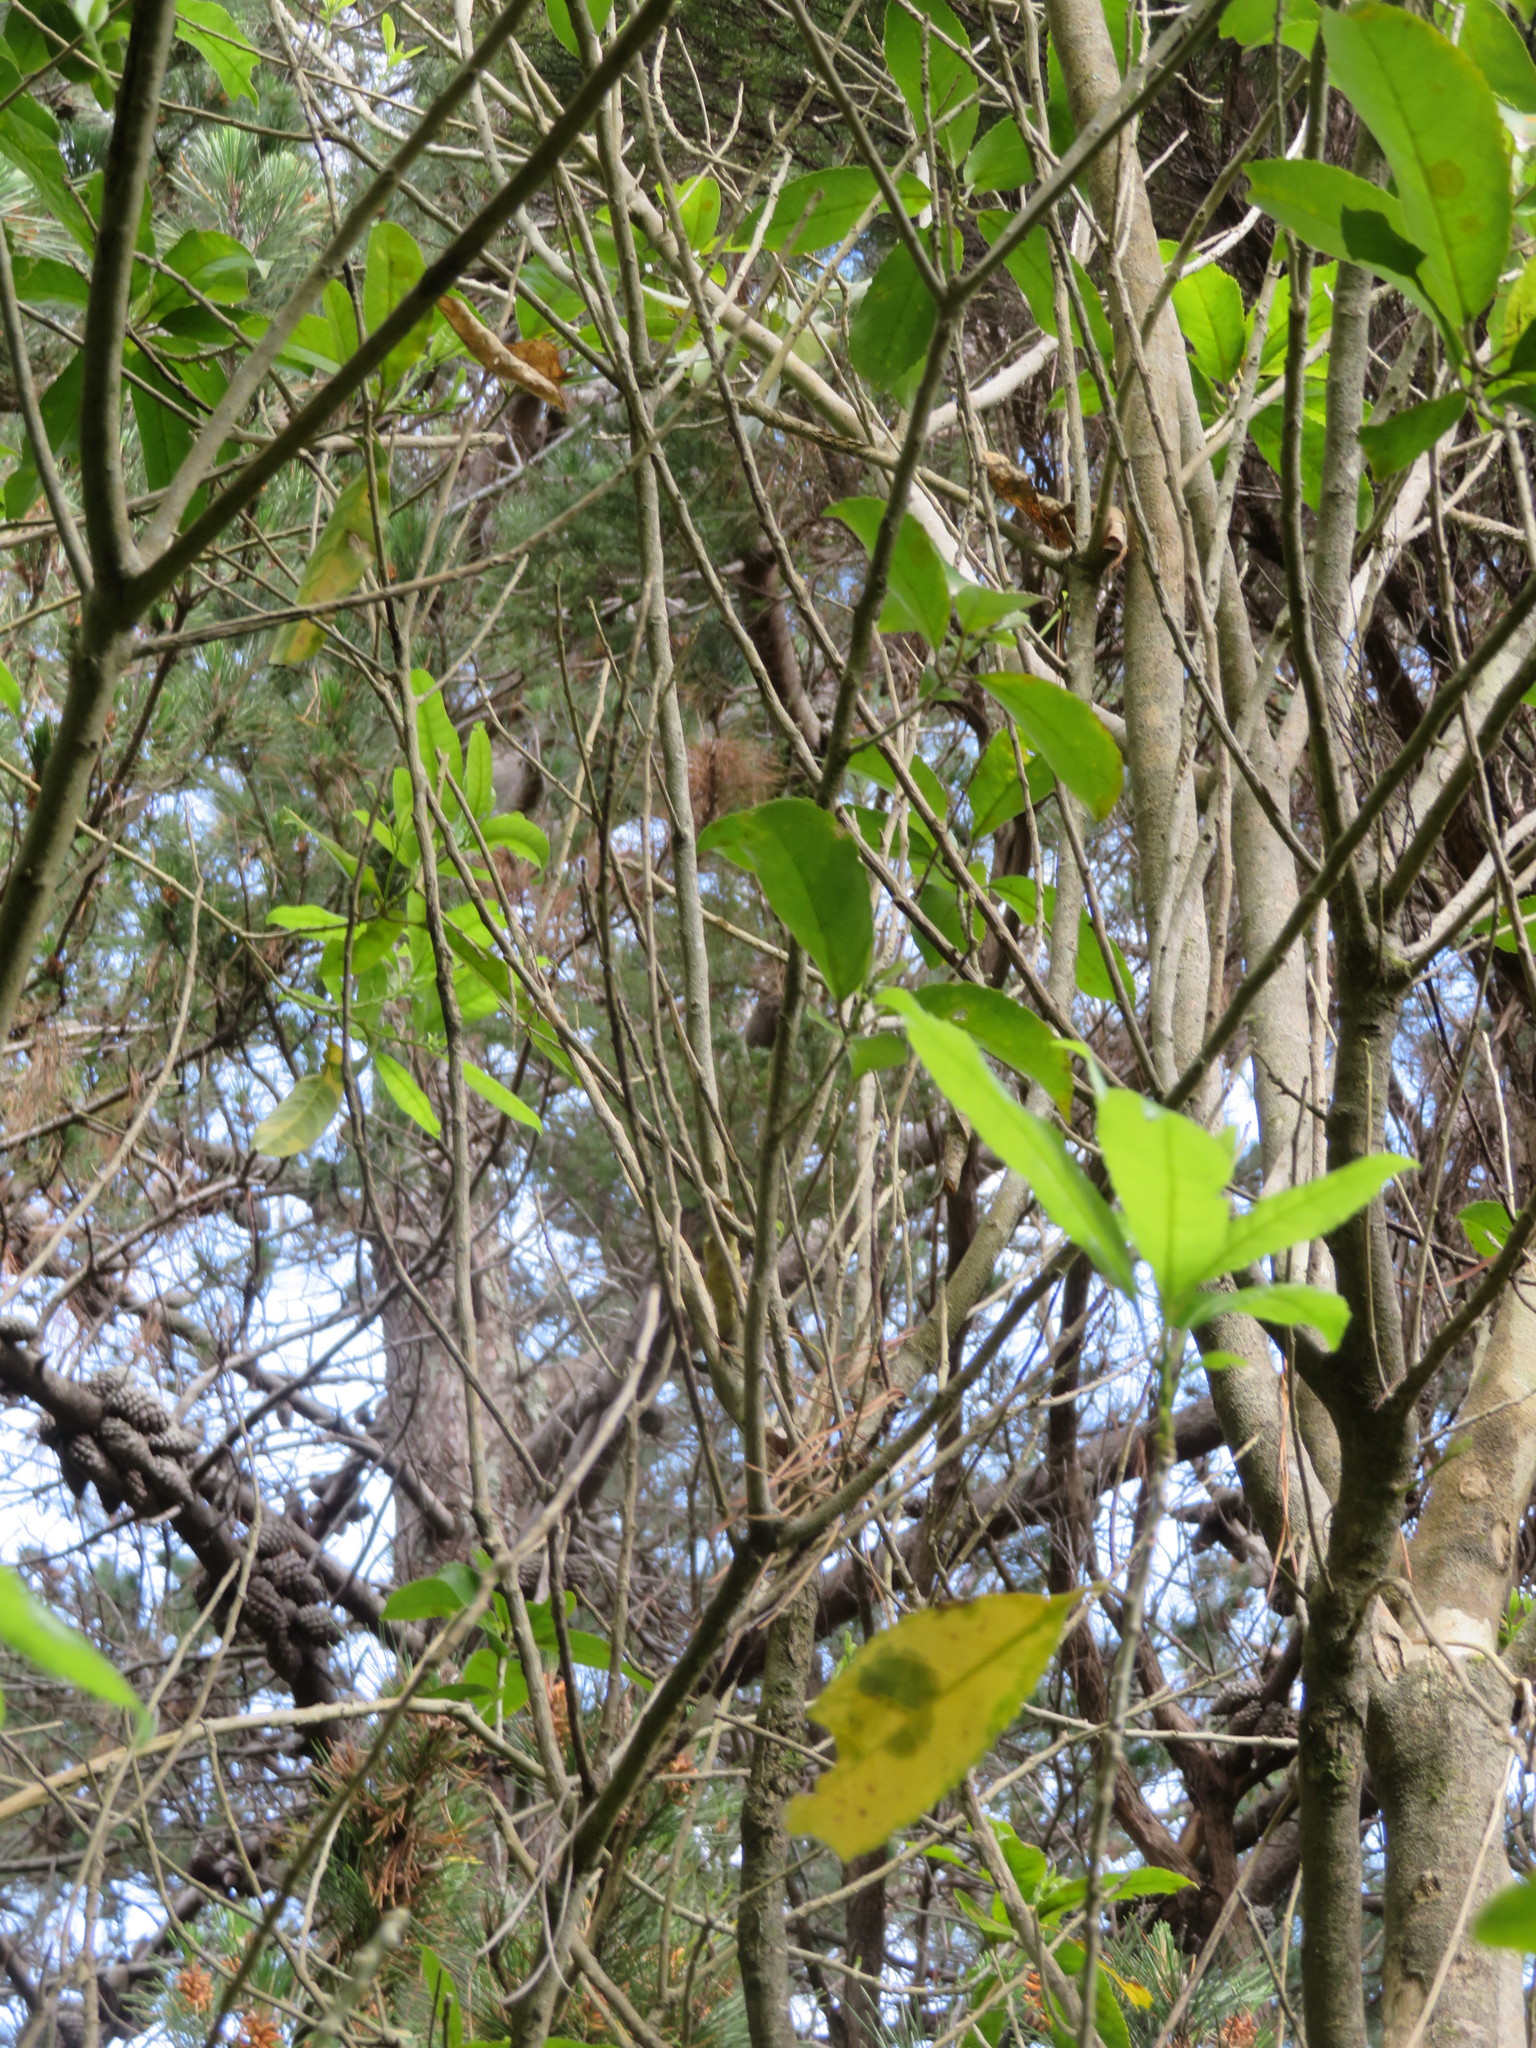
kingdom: Plantae
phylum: Tracheophyta
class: Magnoliopsida
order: Malpighiales
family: Violaceae
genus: Melicytus
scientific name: Melicytus ramiflorus
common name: Mahoe
